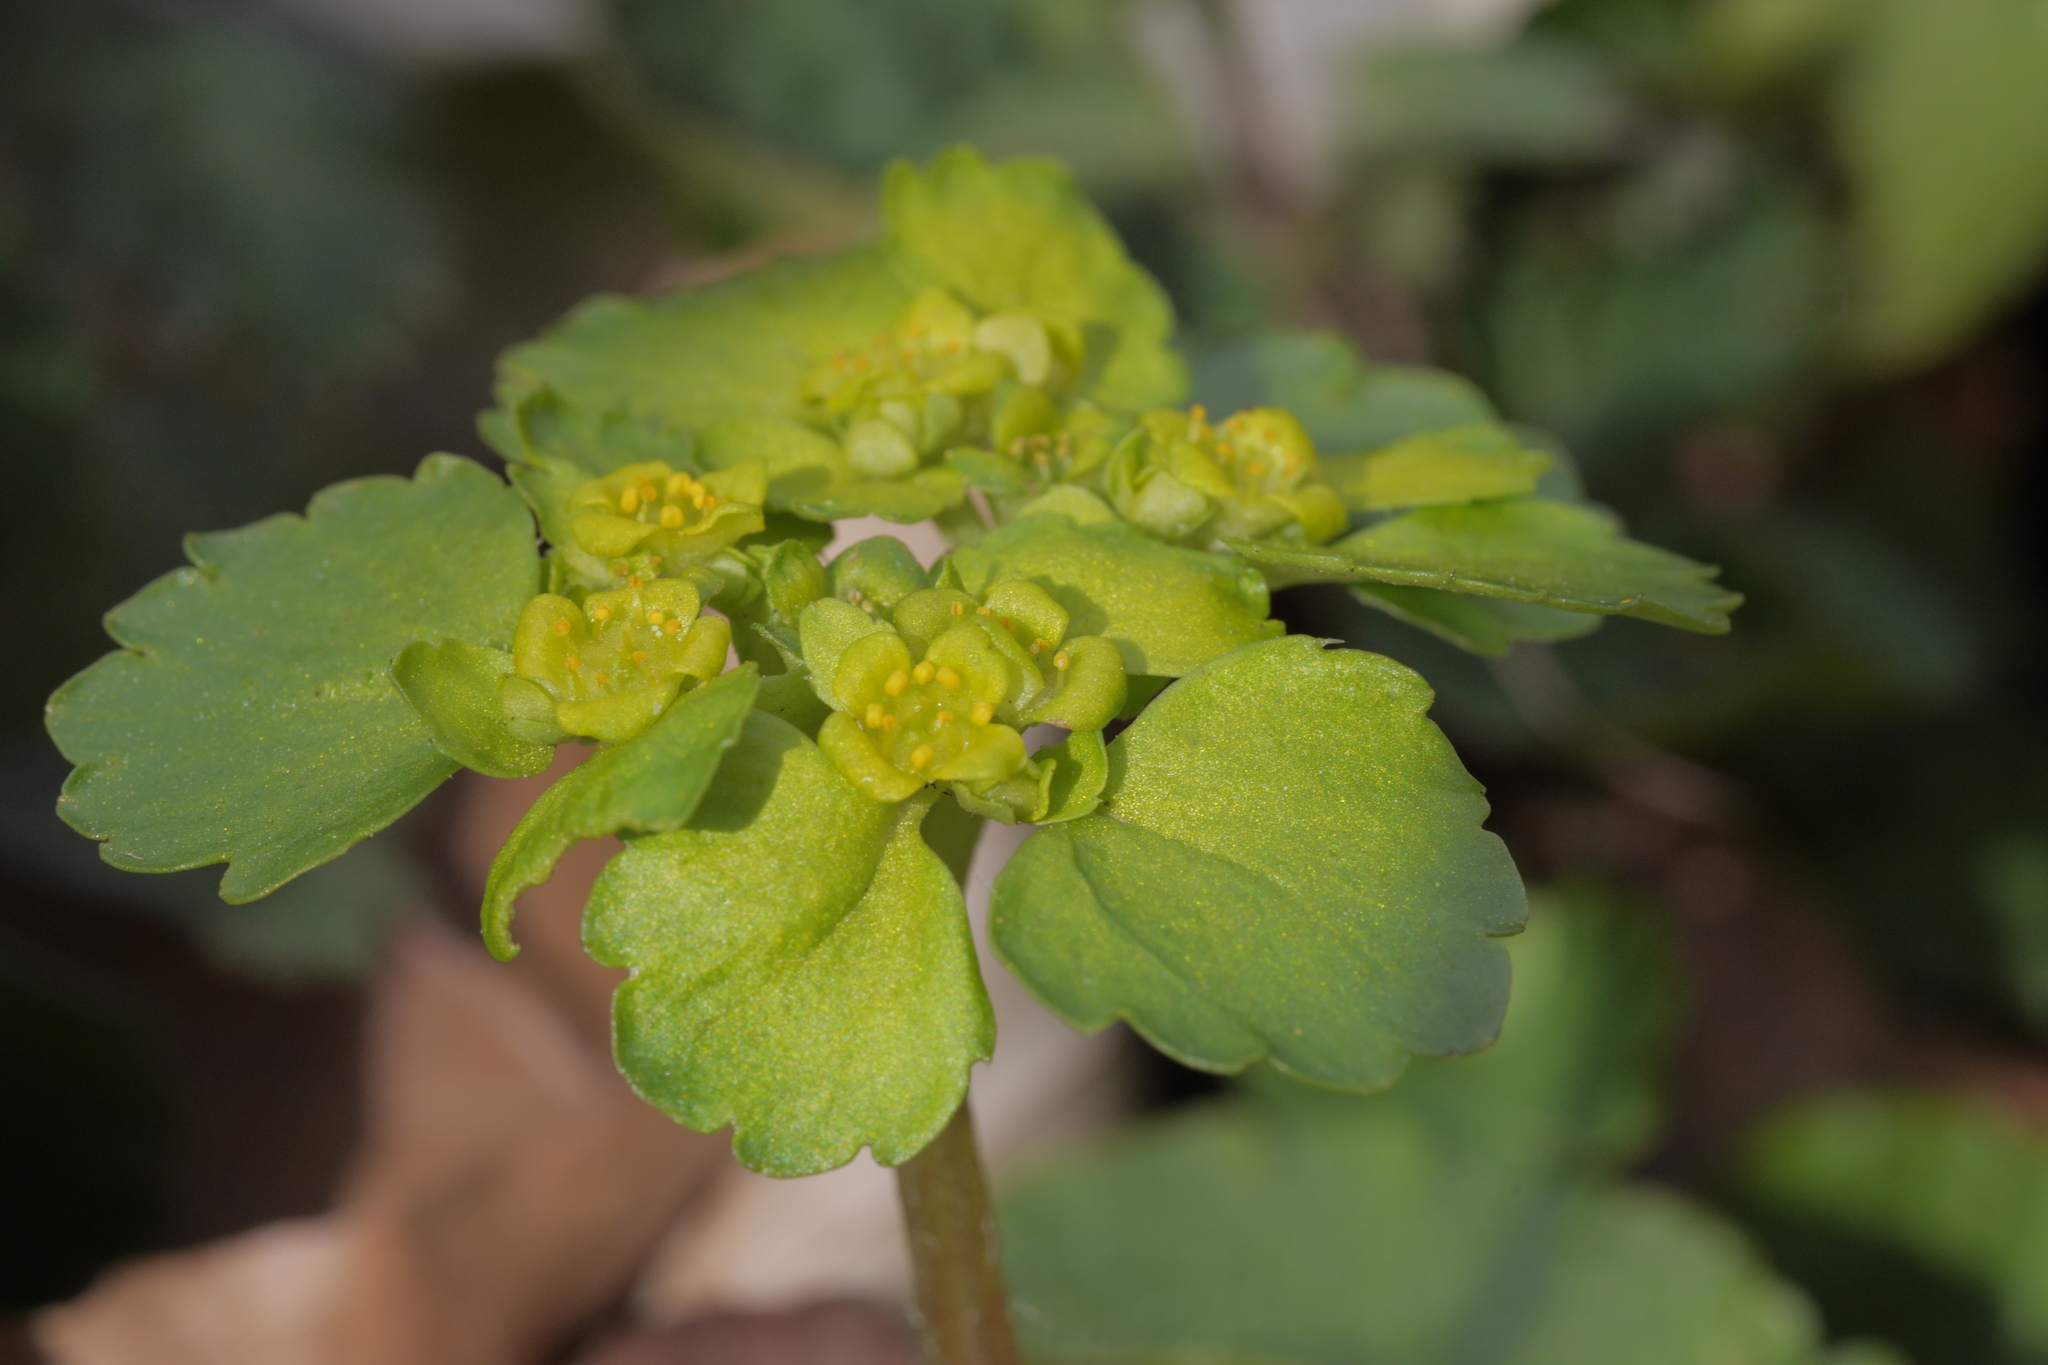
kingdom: Plantae
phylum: Tracheophyta
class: Magnoliopsida
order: Saxifragales
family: Saxifragaceae
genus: Chrysosplenium
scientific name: Chrysosplenium alternifolium
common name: Alternate-leaved golden-saxifrage
